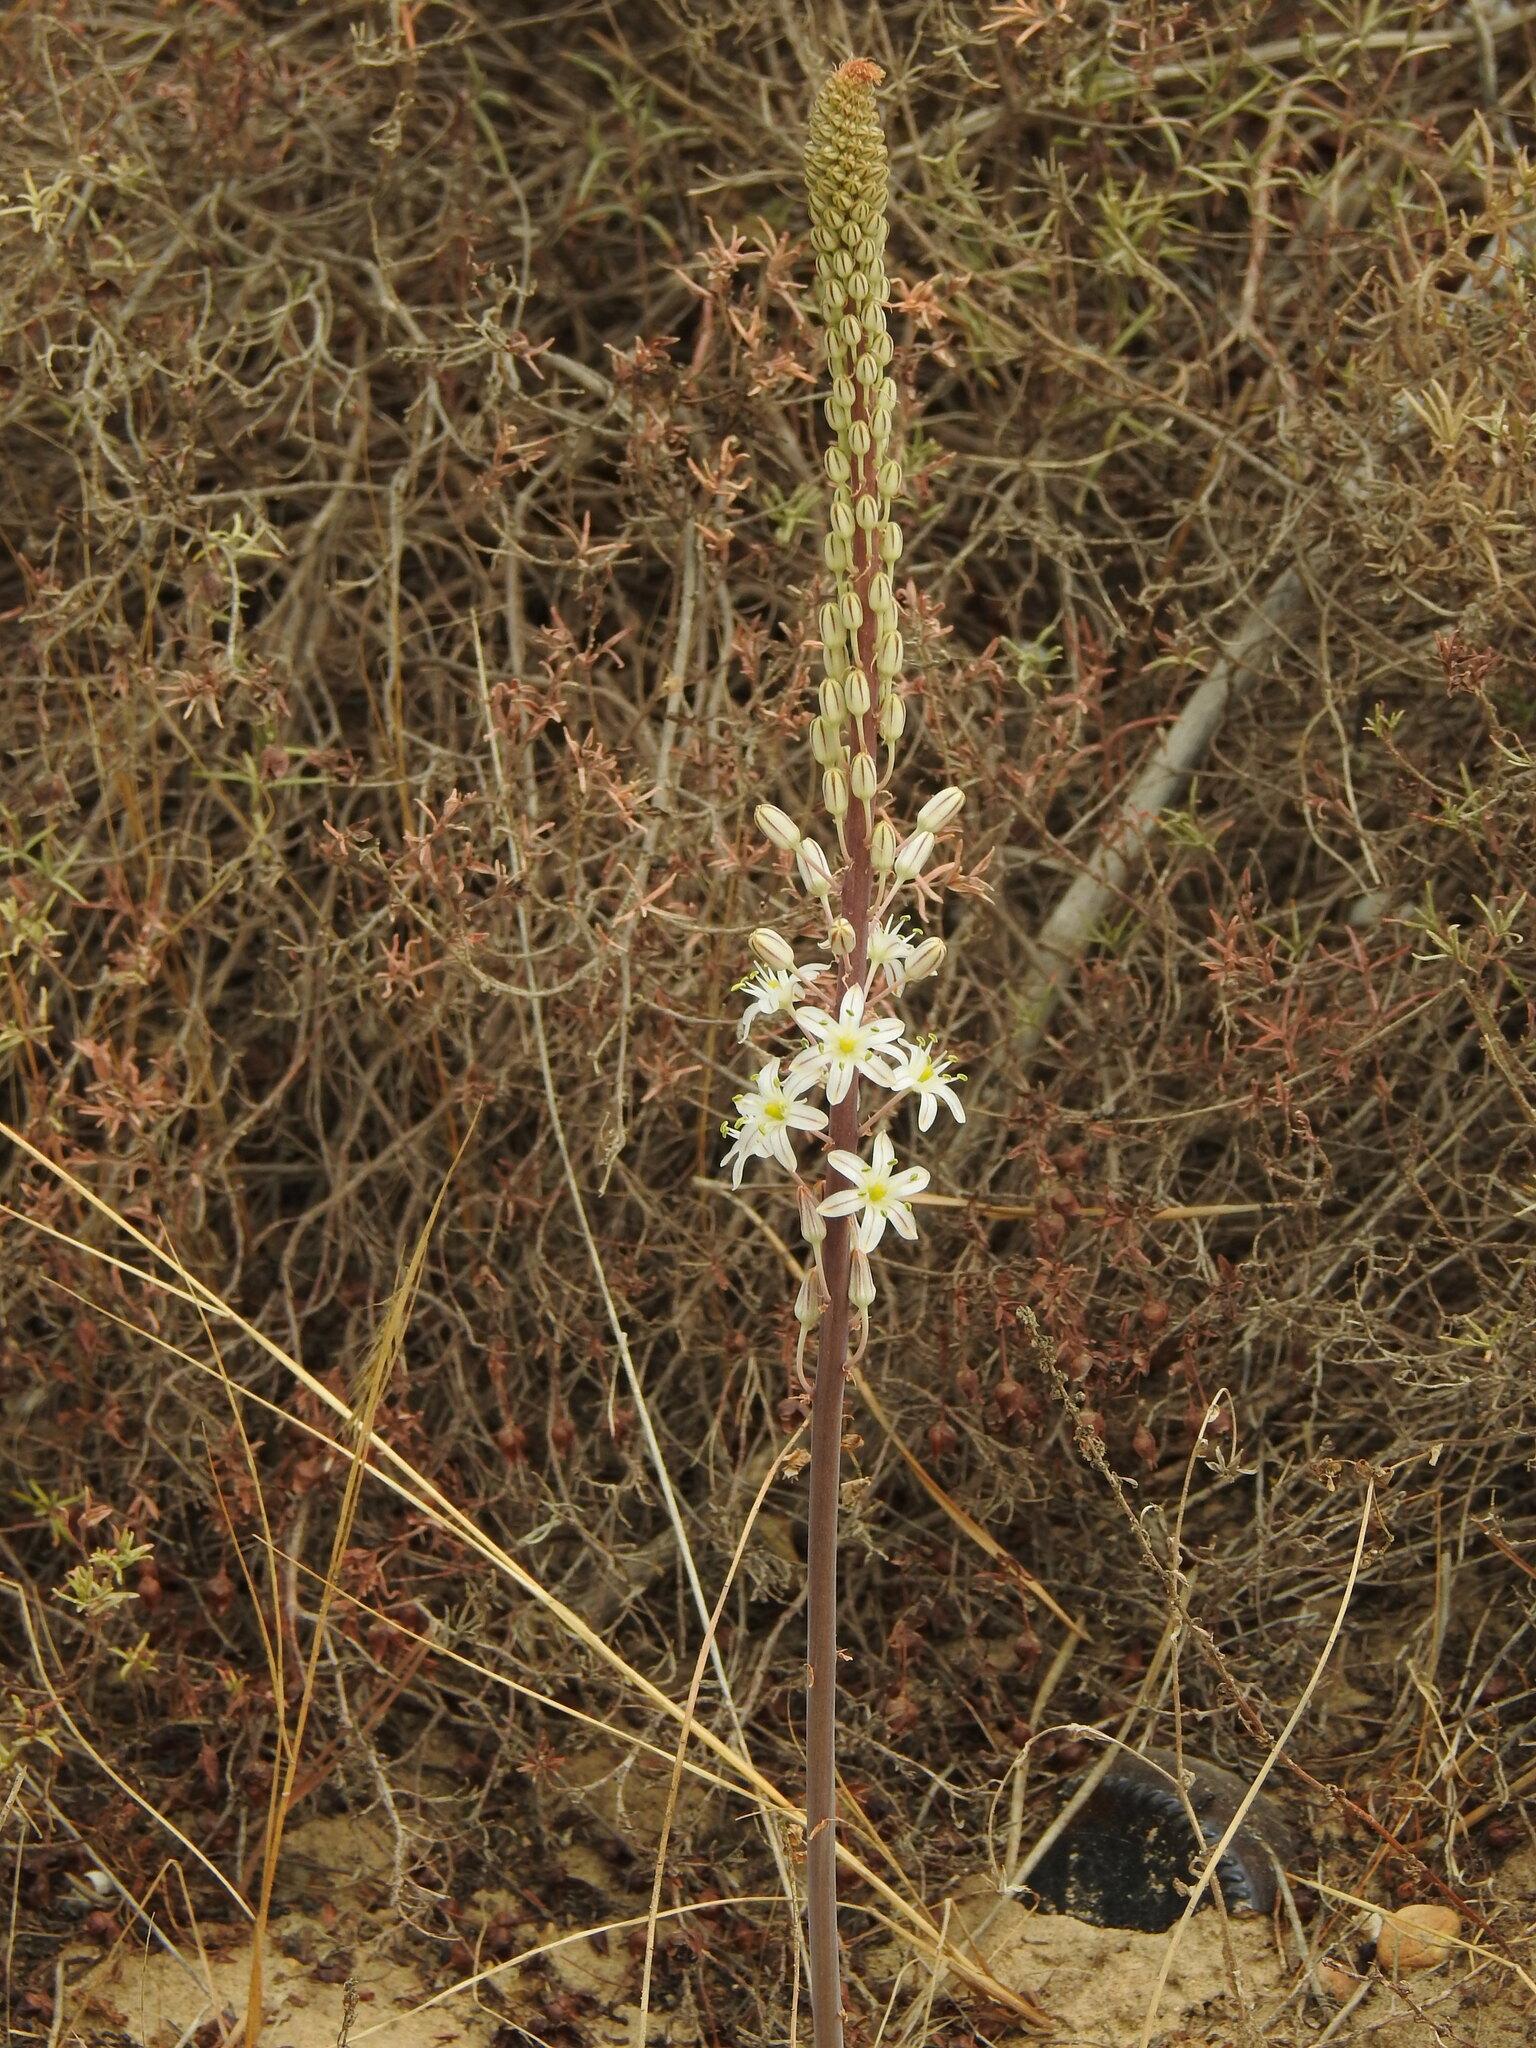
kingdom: Plantae
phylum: Tracheophyta
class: Liliopsida
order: Asparagales
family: Asparagaceae
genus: Drimia
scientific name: Drimia maritima
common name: Maritime squill
